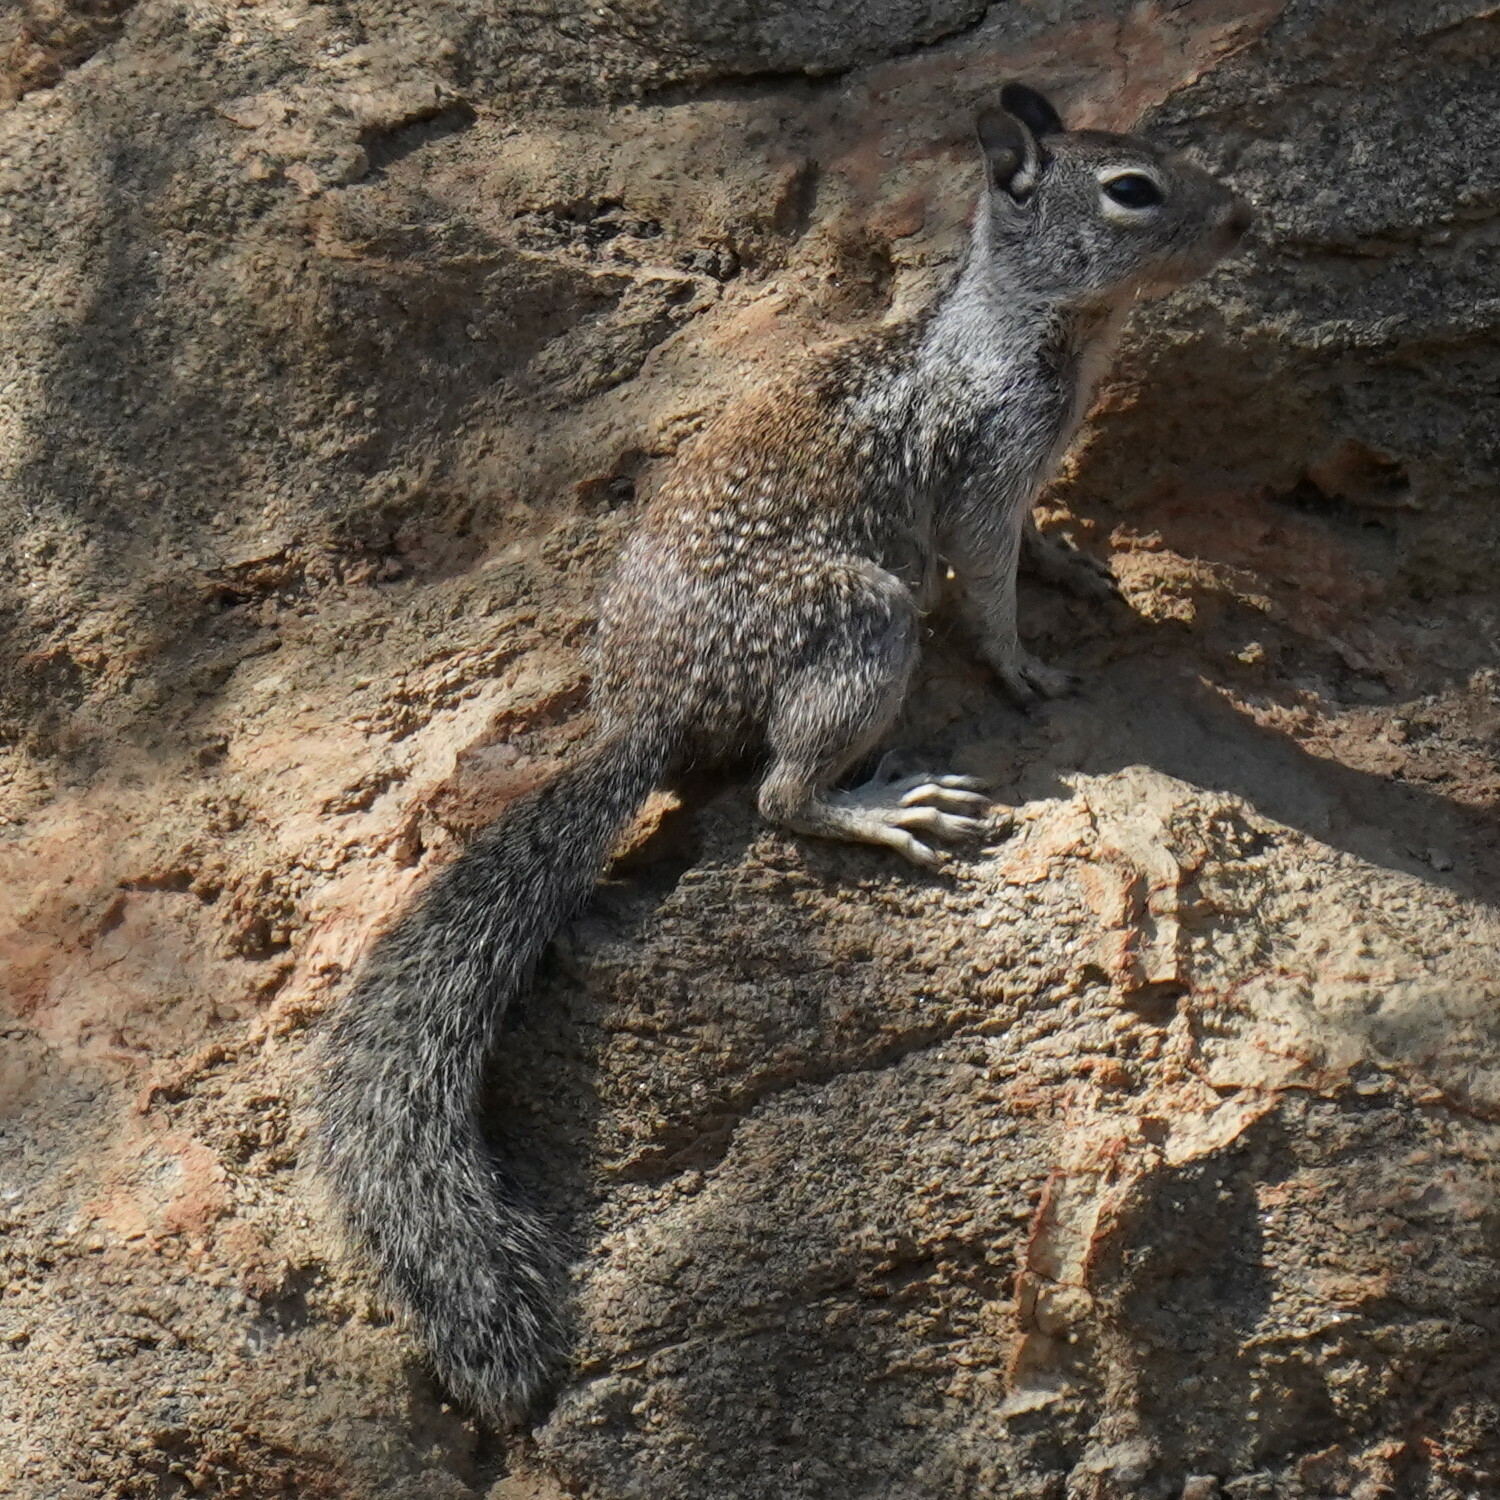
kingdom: Animalia
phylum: Chordata
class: Mammalia
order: Rodentia
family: Sciuridae
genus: Otospermophilus
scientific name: Otospermophilus beecheyi
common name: California ground squirrel
